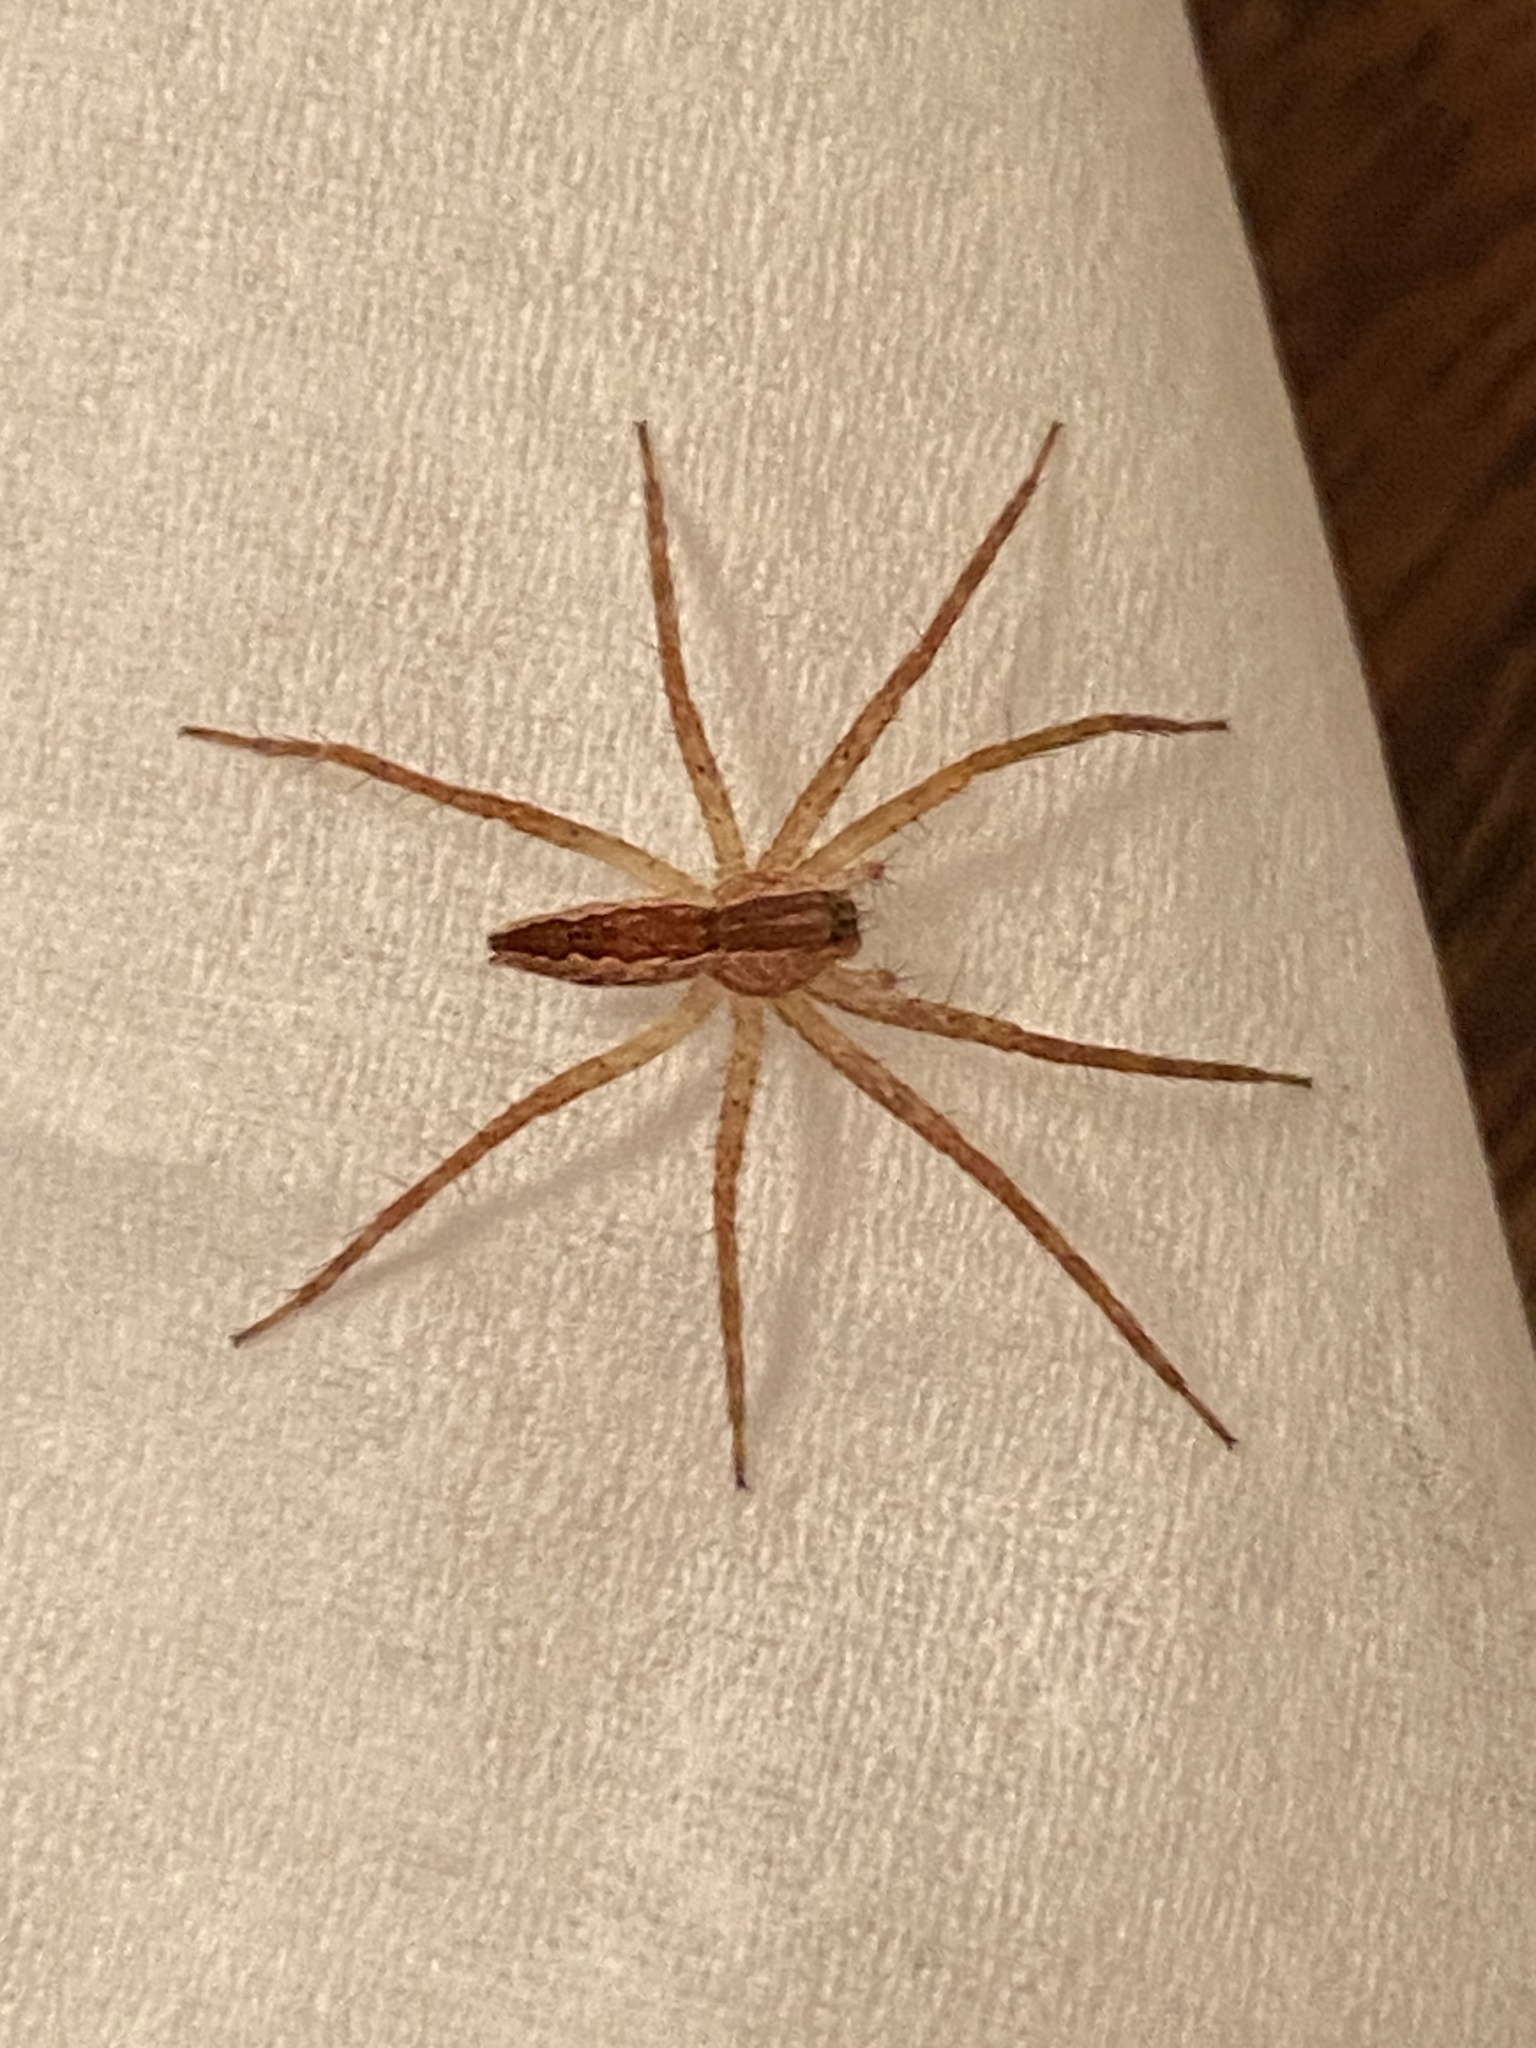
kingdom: Animalia
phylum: Arthropoda
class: Arachnida
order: Araneae
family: Pisauridae
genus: Pisaurina
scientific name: Pisaurina mira
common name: American nursery web spider
